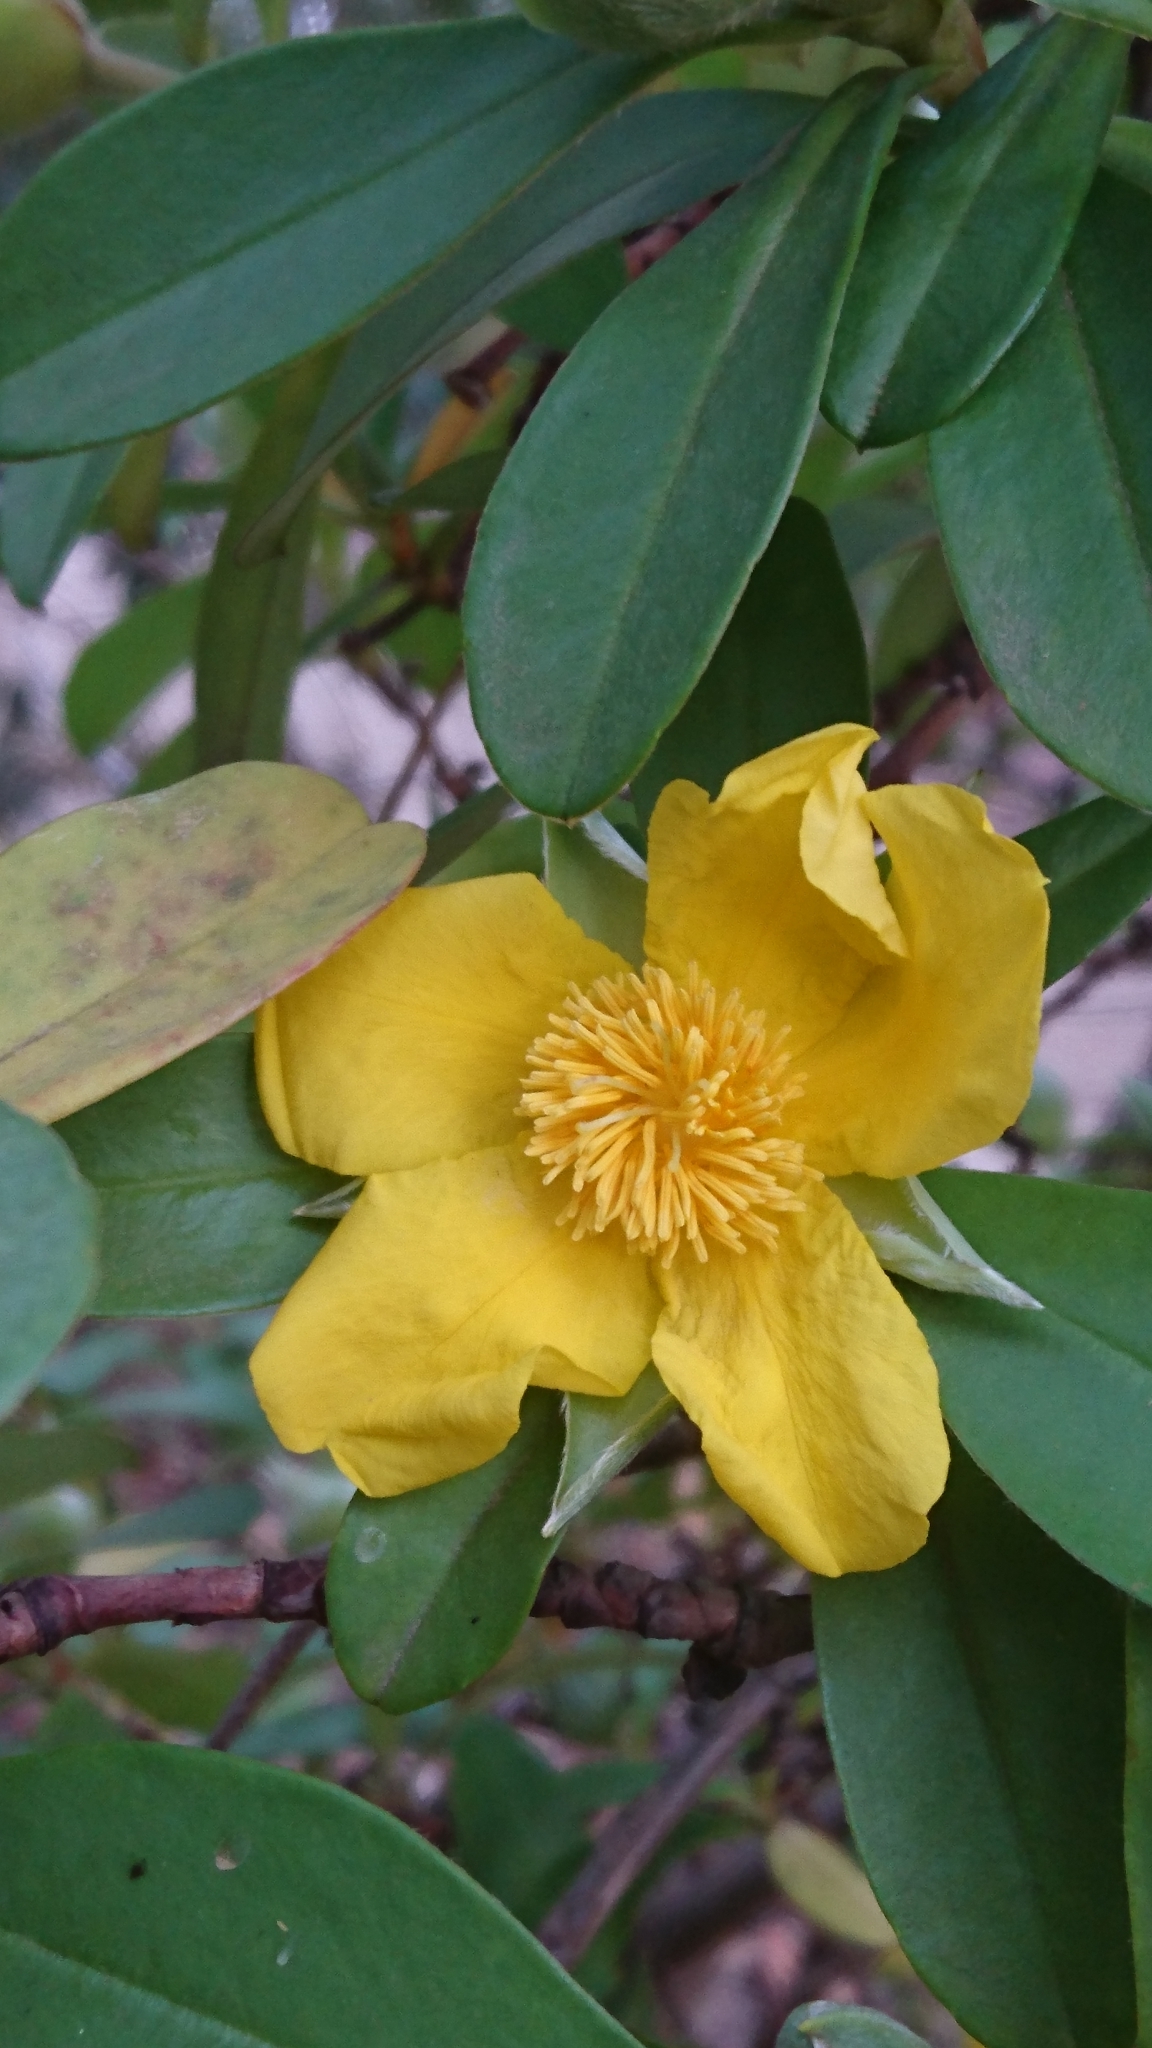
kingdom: Plantae
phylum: Tracheophyta
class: Magnoliopsida
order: Dilleniales
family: Dilleniaceae
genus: Hibbertia
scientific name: Hibbertia scandens
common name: Climbing guinea-flower
